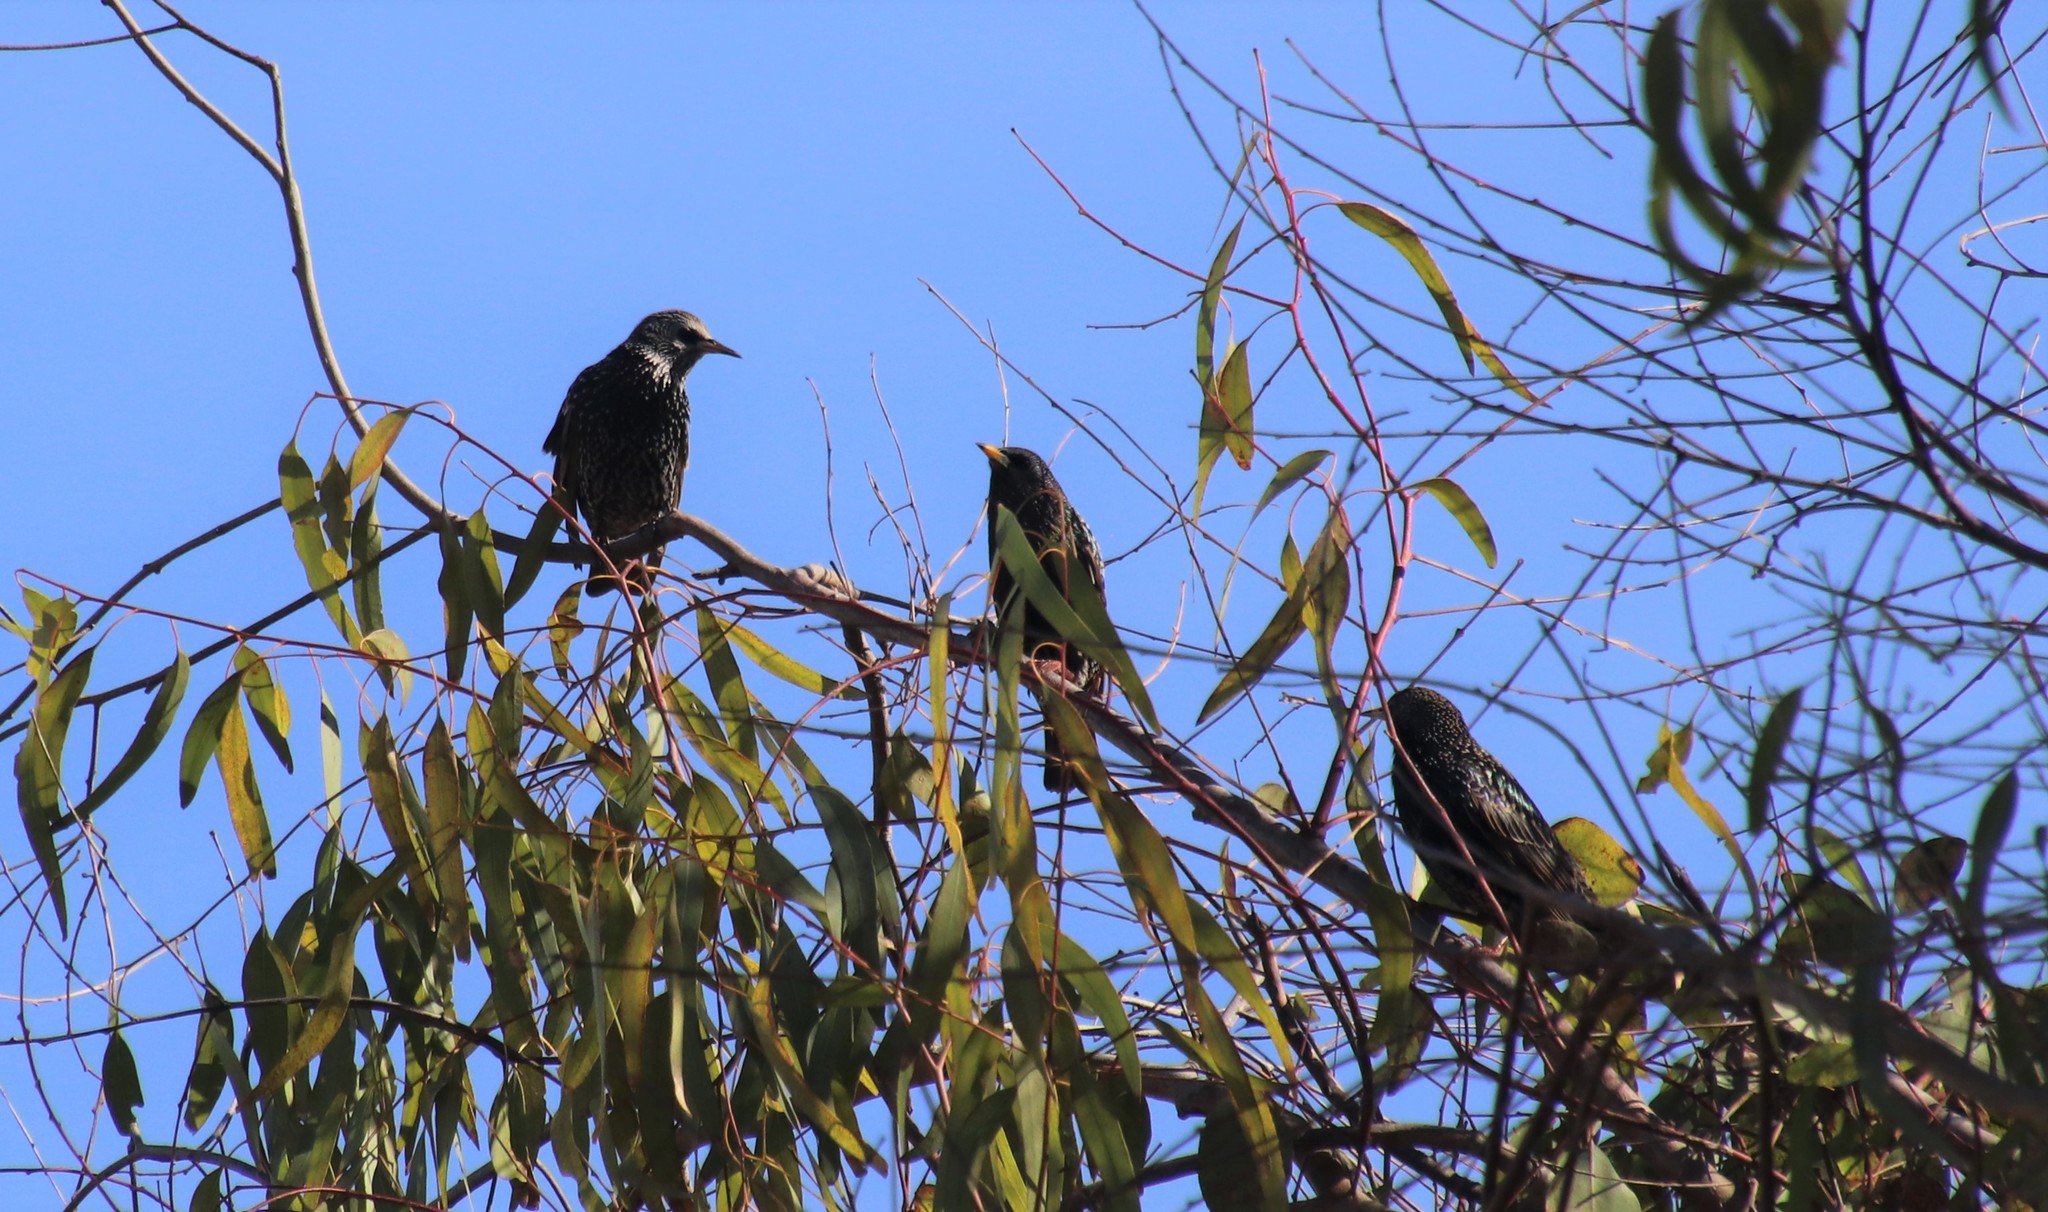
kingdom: Animalia
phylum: Chordata
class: Aves
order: Passeriformes
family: Sturnidae
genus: Sturnus
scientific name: Sturnus vulgaris
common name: Common starling
